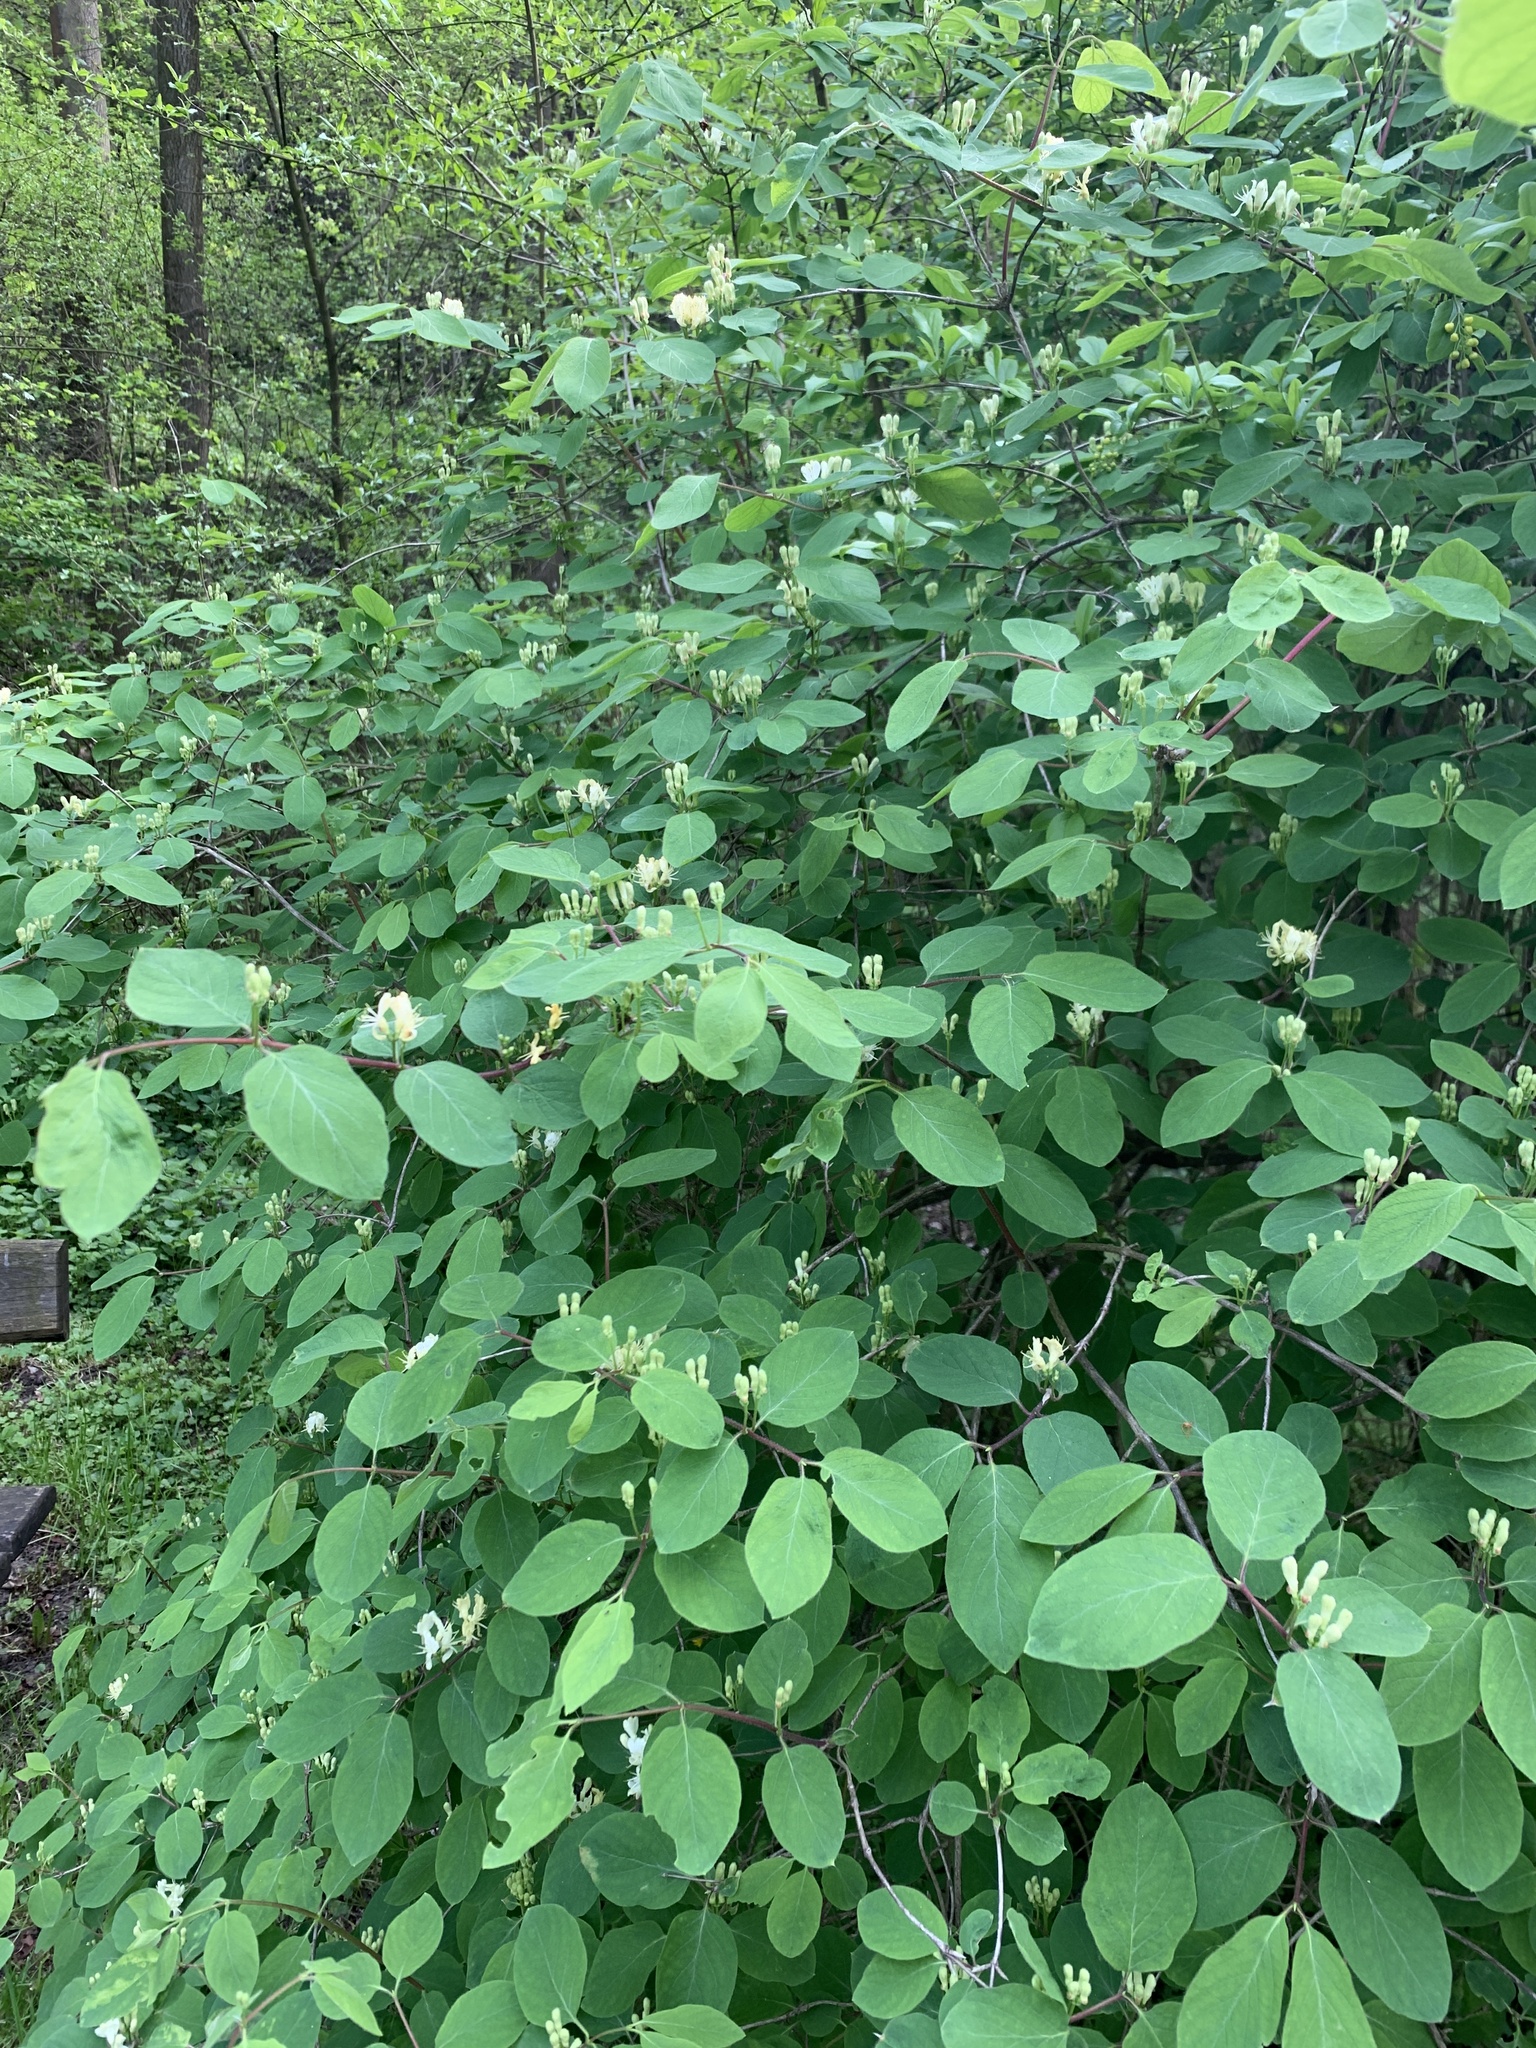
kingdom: Plantae
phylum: Tracheophyta
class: Magnoliopsida
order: Dipsacales
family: Caprifoliaceae
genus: Lonicera
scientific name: Lonicera xylosteum
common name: Fly honeysuckle
